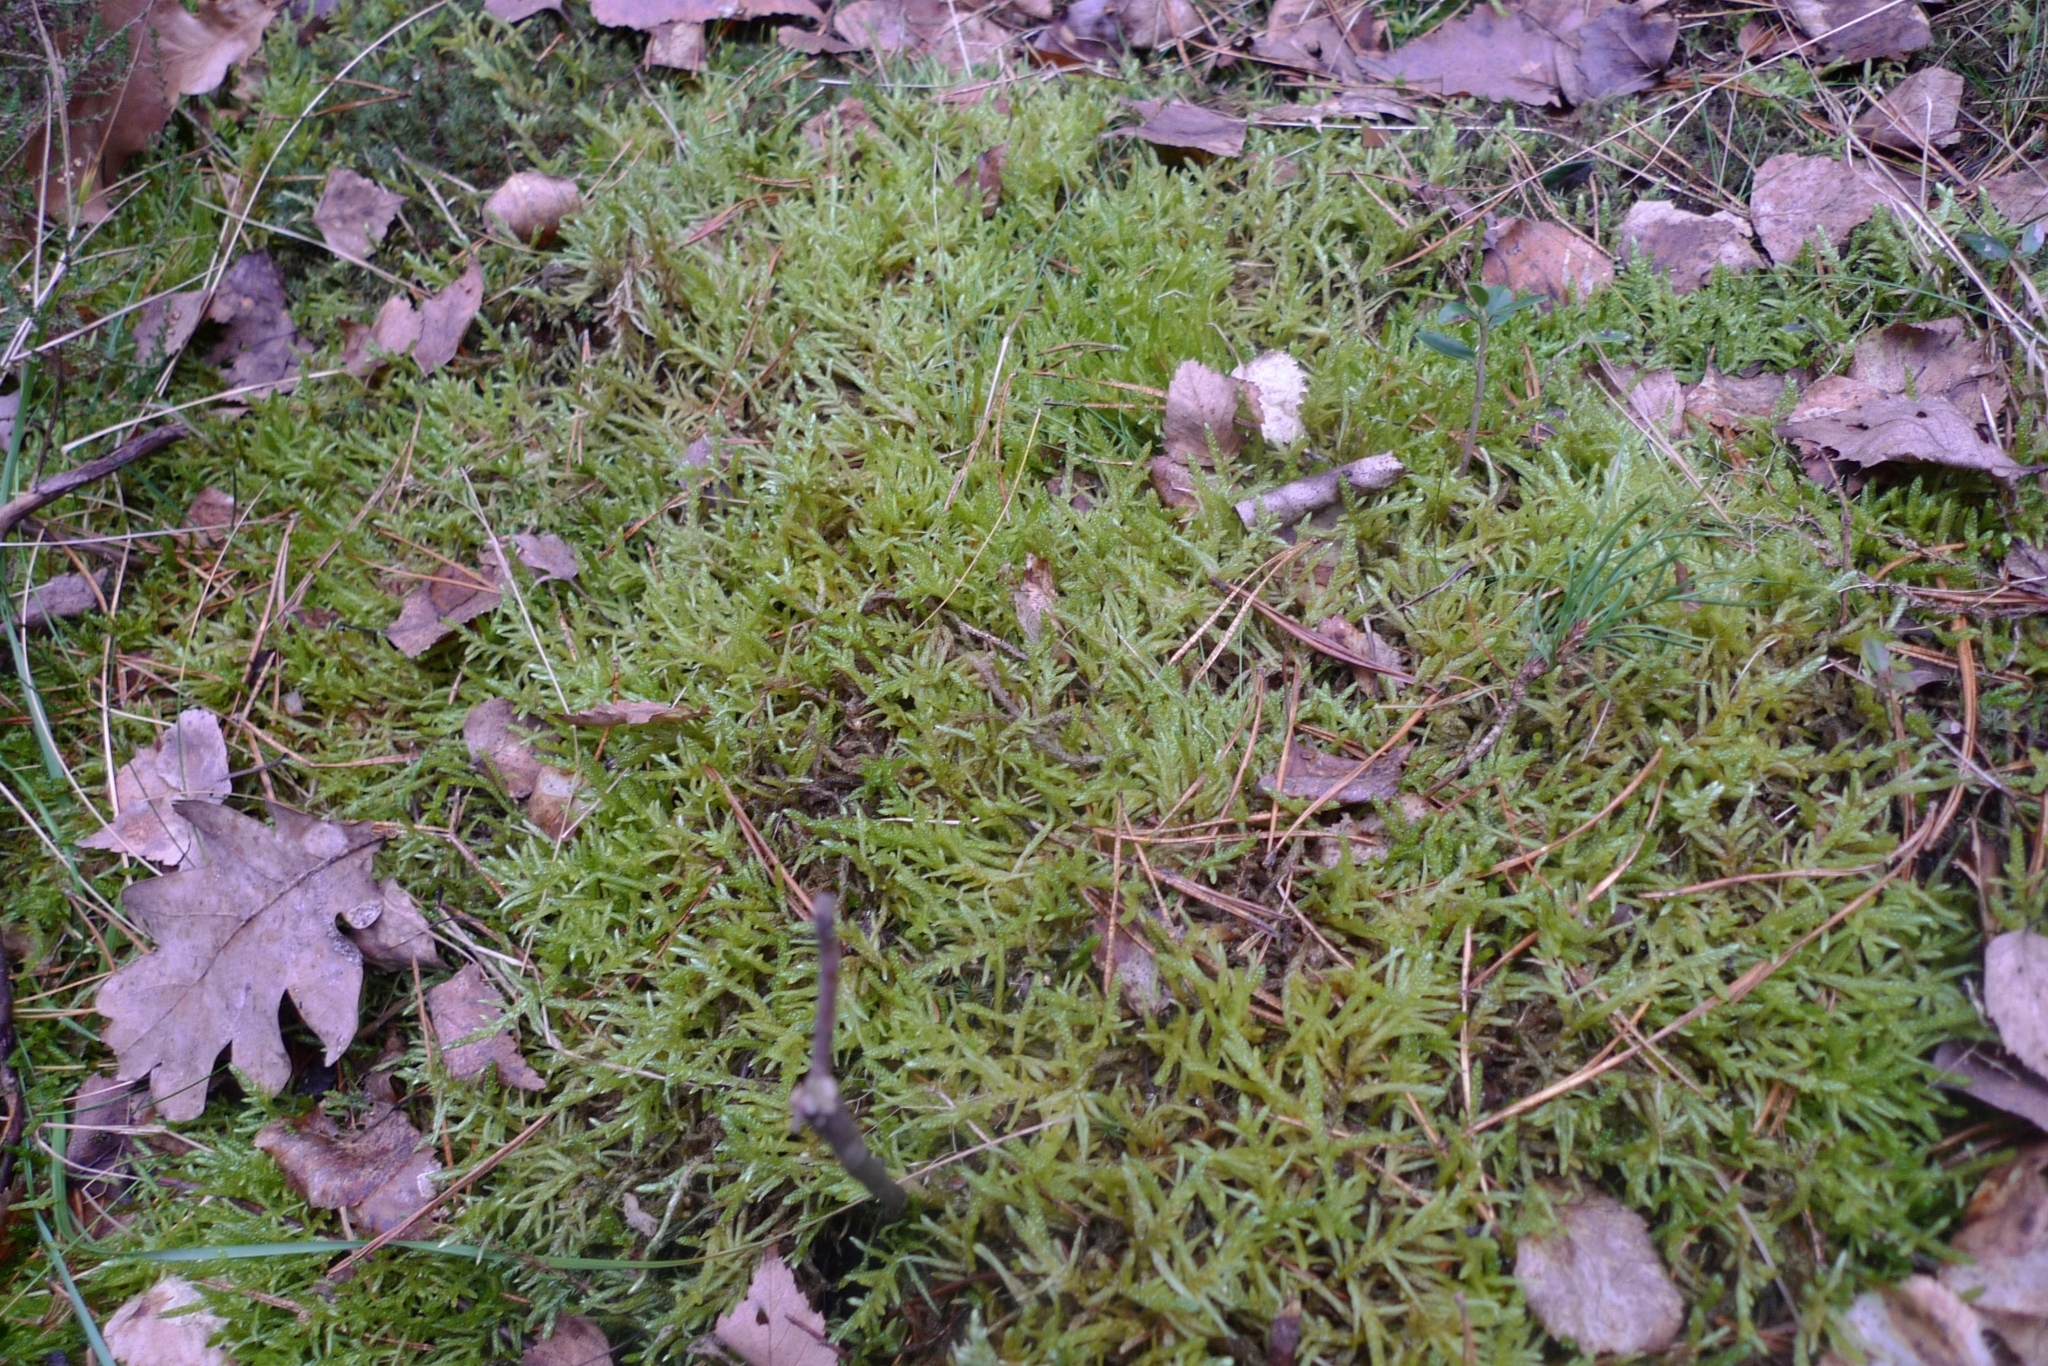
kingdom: Plantae
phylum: Bryophyta
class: Bryopsida
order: Hypnales
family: Brachytheciaceae
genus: Pseudoscleropodium
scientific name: Pseudoscleropodium purum
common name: Neat feather-moss
